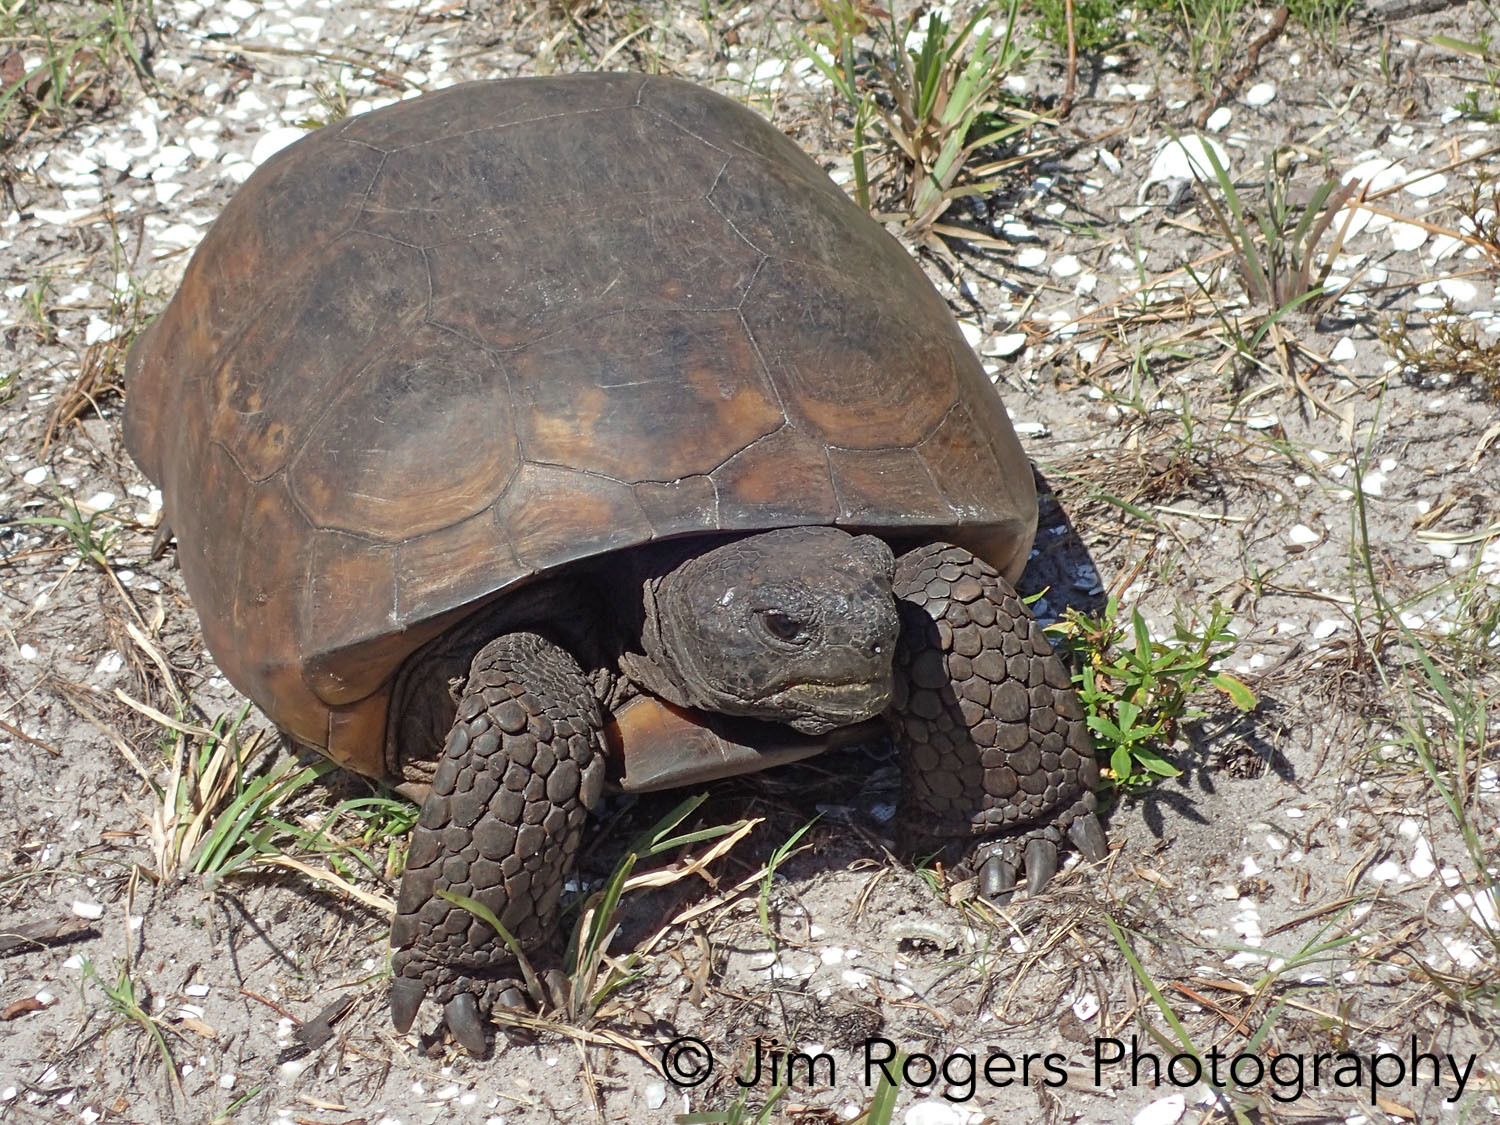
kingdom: Animalia
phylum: Chordata
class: Testudines
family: Testudinidae
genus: Gopherus
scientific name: Gopherus polyphemus
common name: Florida gopher tortoise
